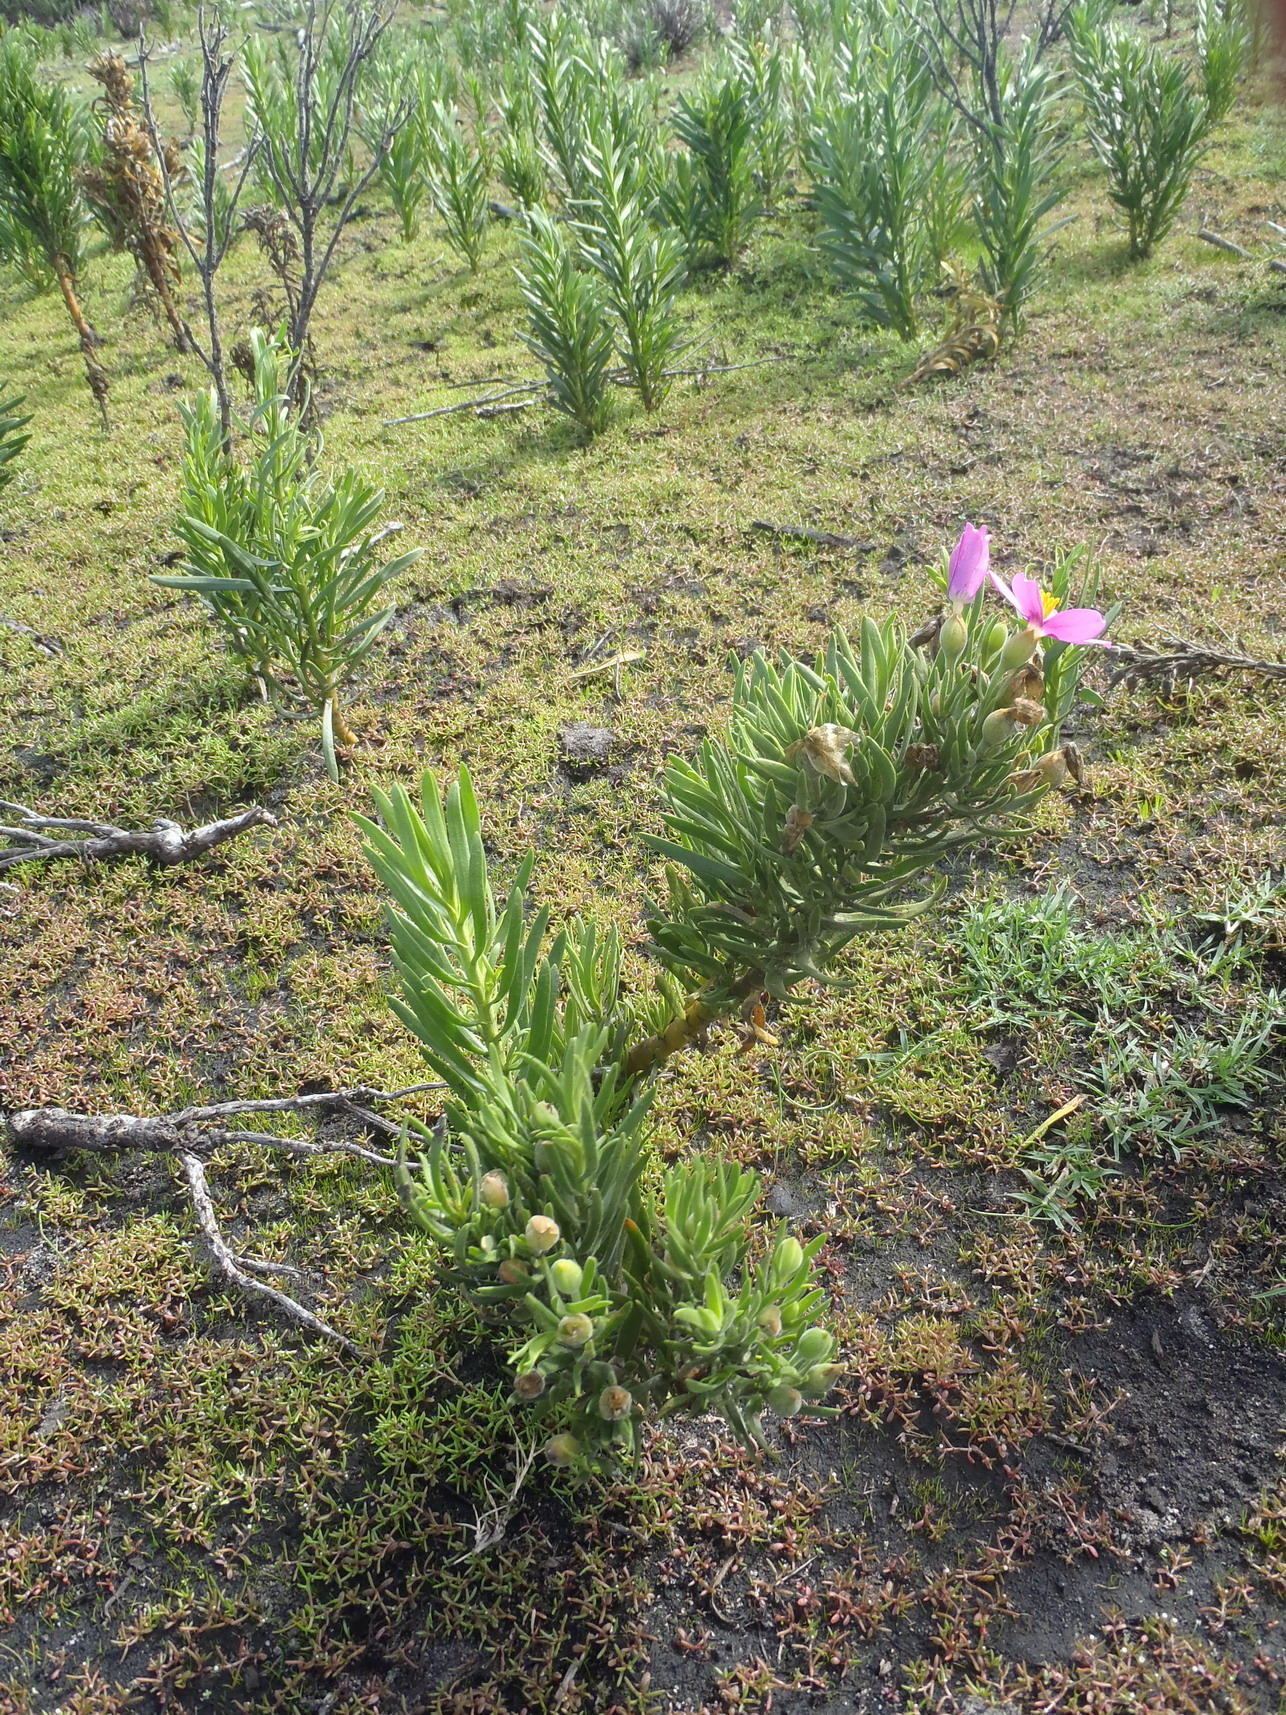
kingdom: Plantae
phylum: Tracheophyta
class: Magnoliopsida
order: Gentianales
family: Gentianaceae
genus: Orphium
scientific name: Orphium frutescens
